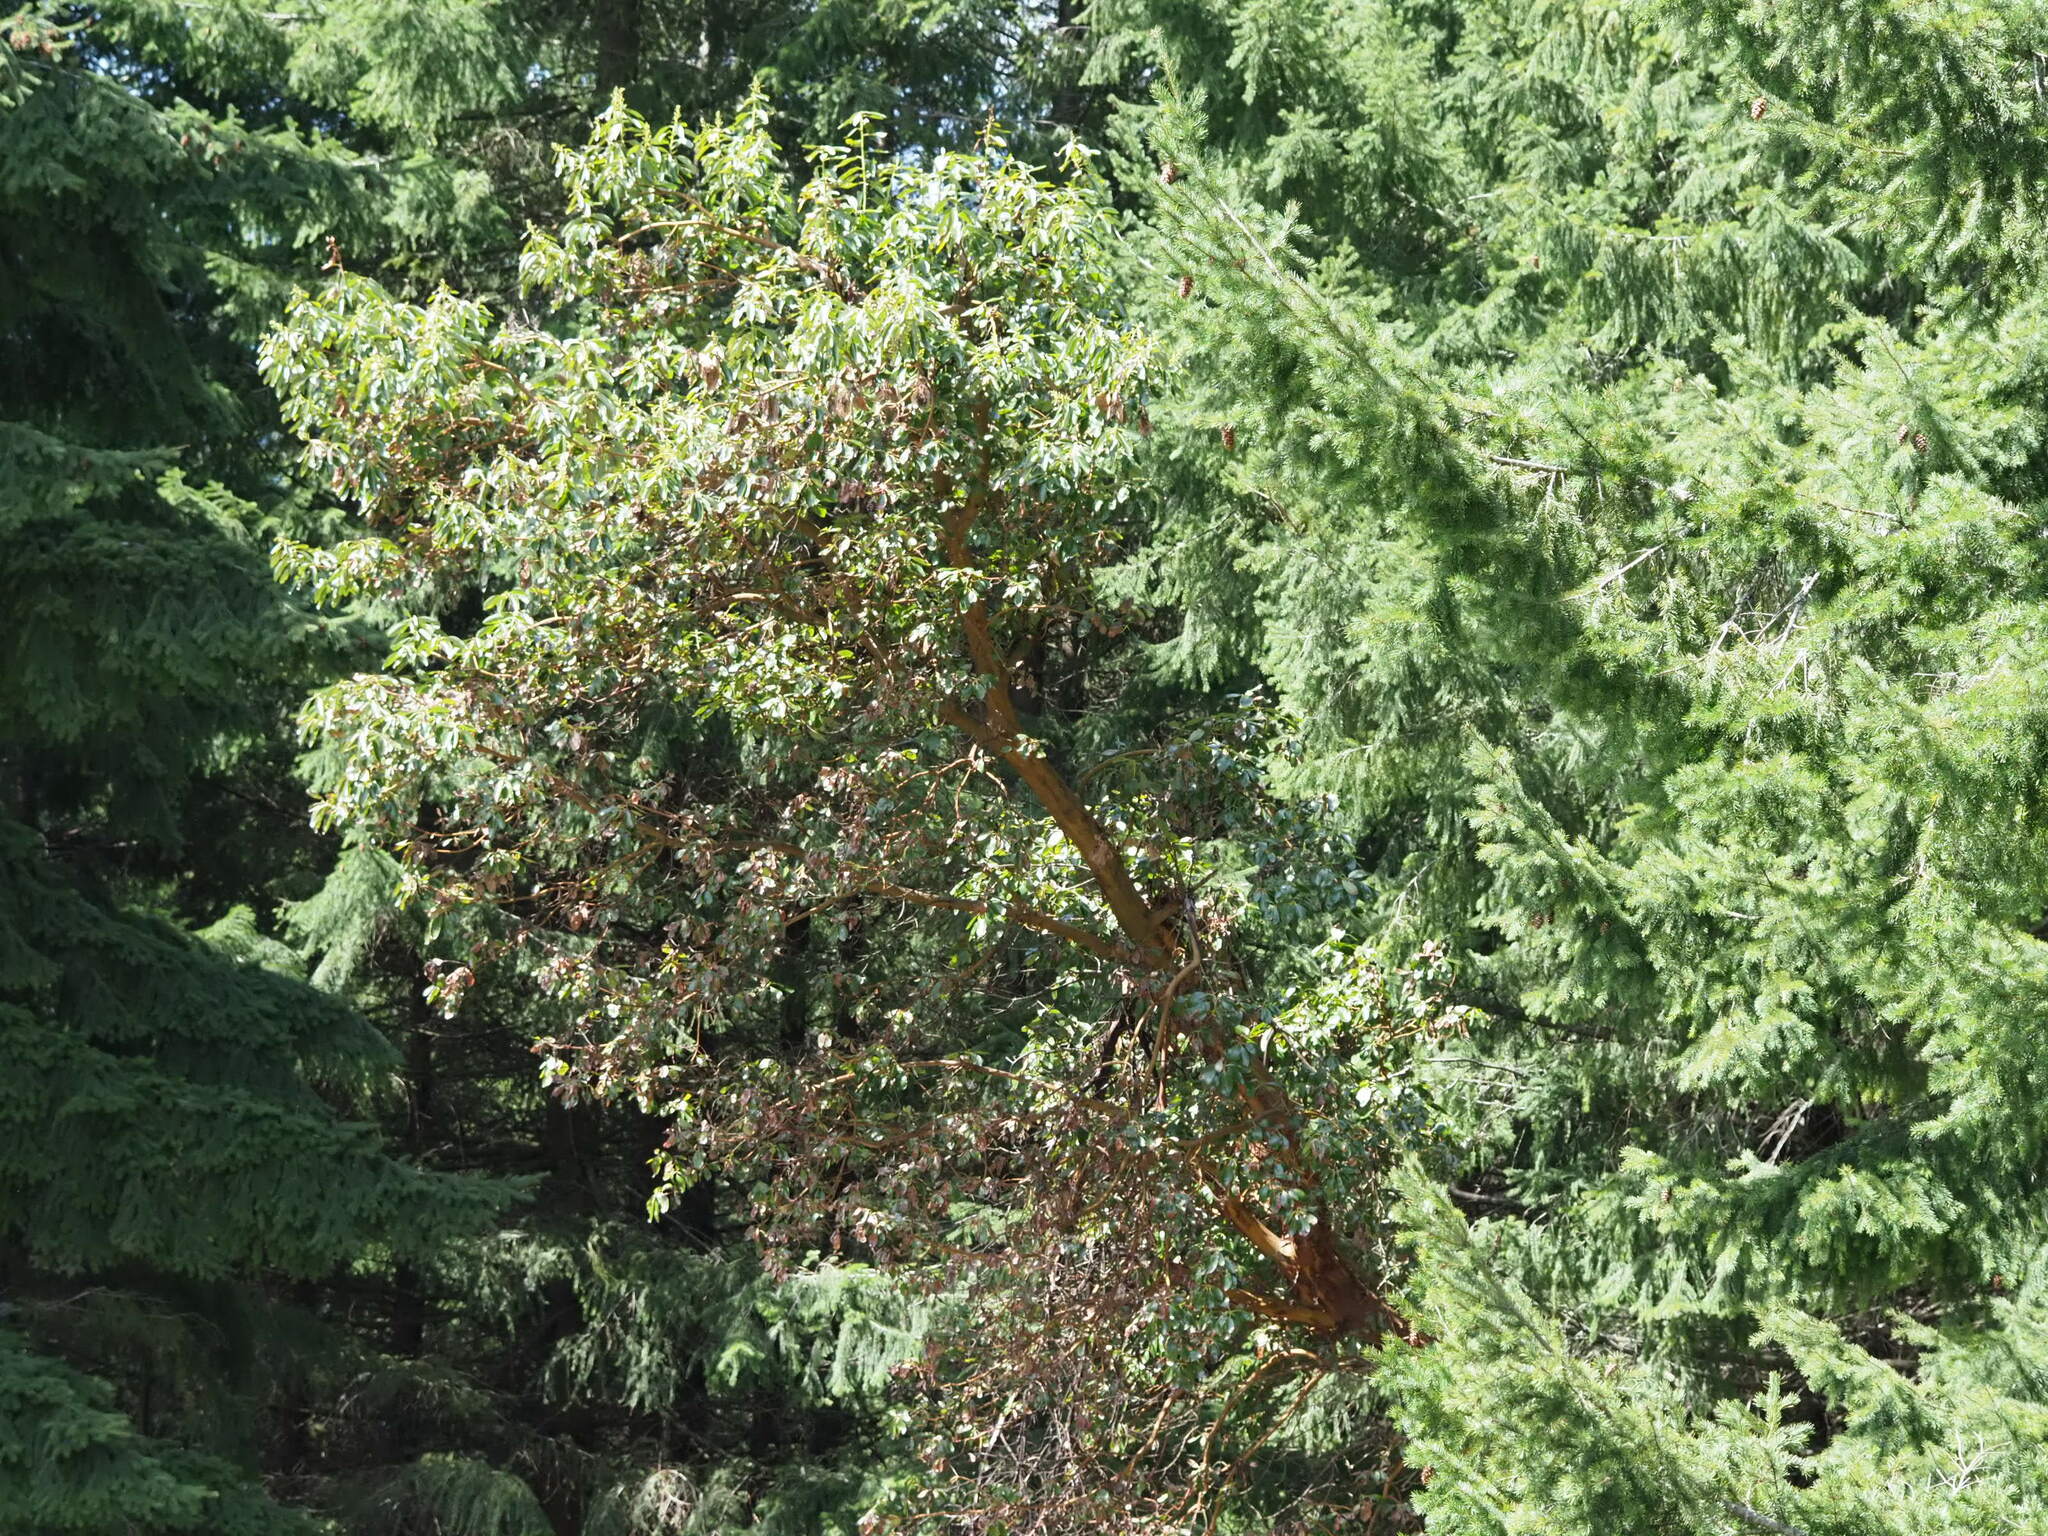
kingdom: Plantae
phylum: Tracheophyta
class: Magnoliopsida
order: Ericales
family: Ericaceae
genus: Arbutus
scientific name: Arbutus menziesii
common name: Pacific madrone
